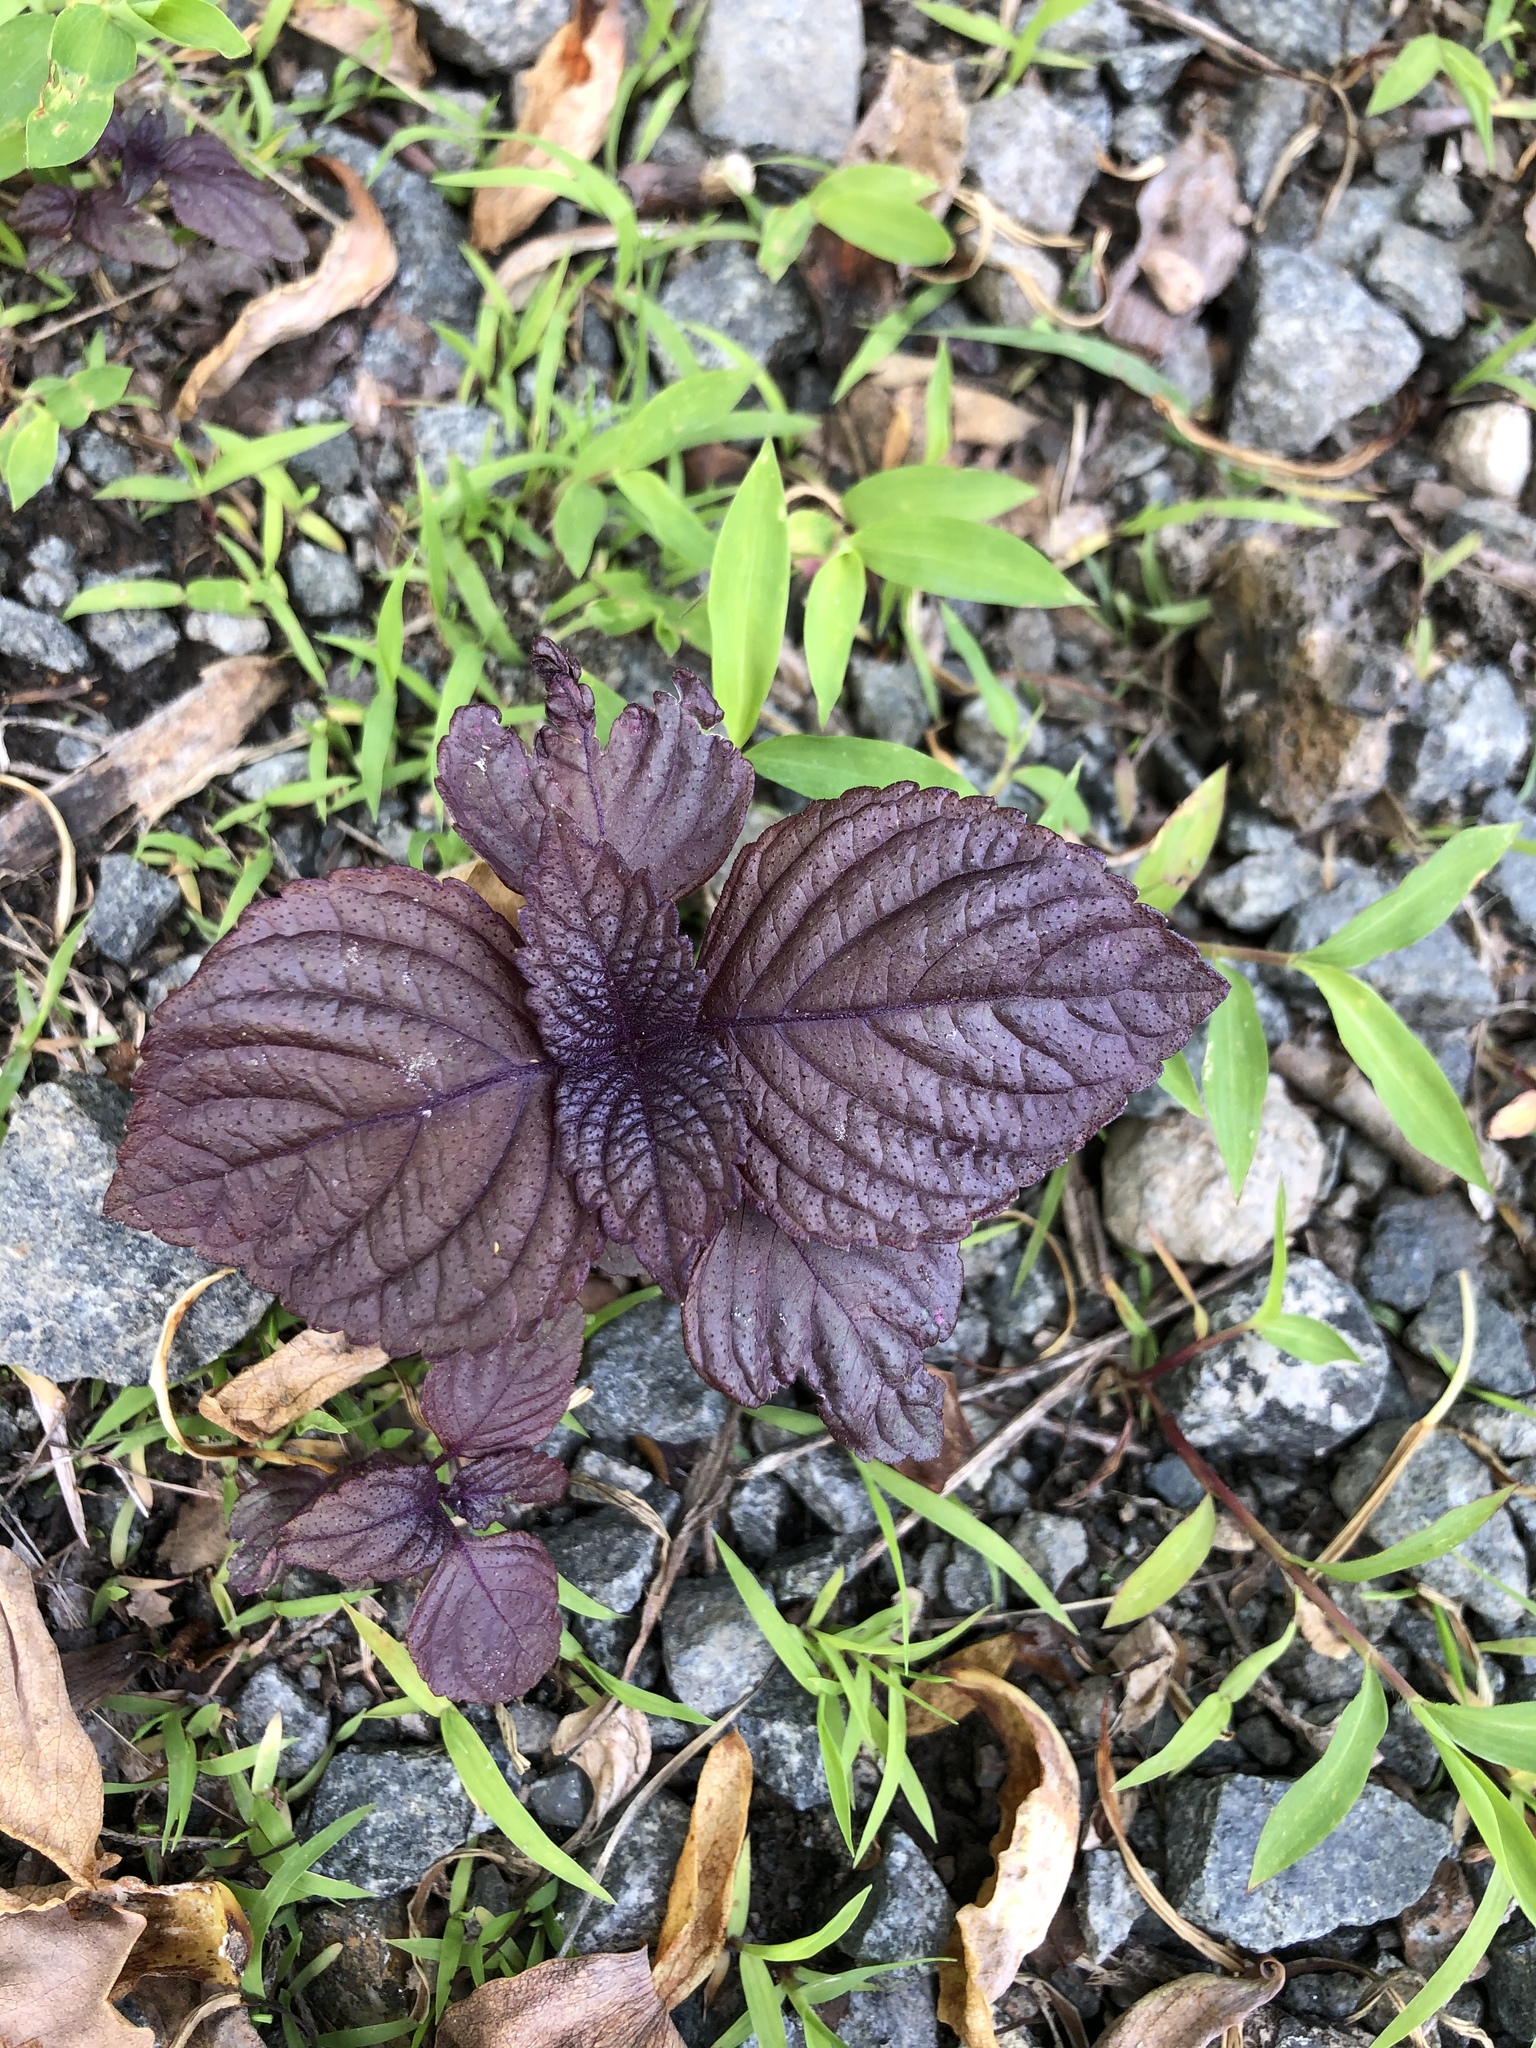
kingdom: Plantae
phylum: Tracheophyta
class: Magnoliopsida
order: Lamiales
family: Lamiaceae
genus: Perilla
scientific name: Perilla frutescens
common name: Perilla
